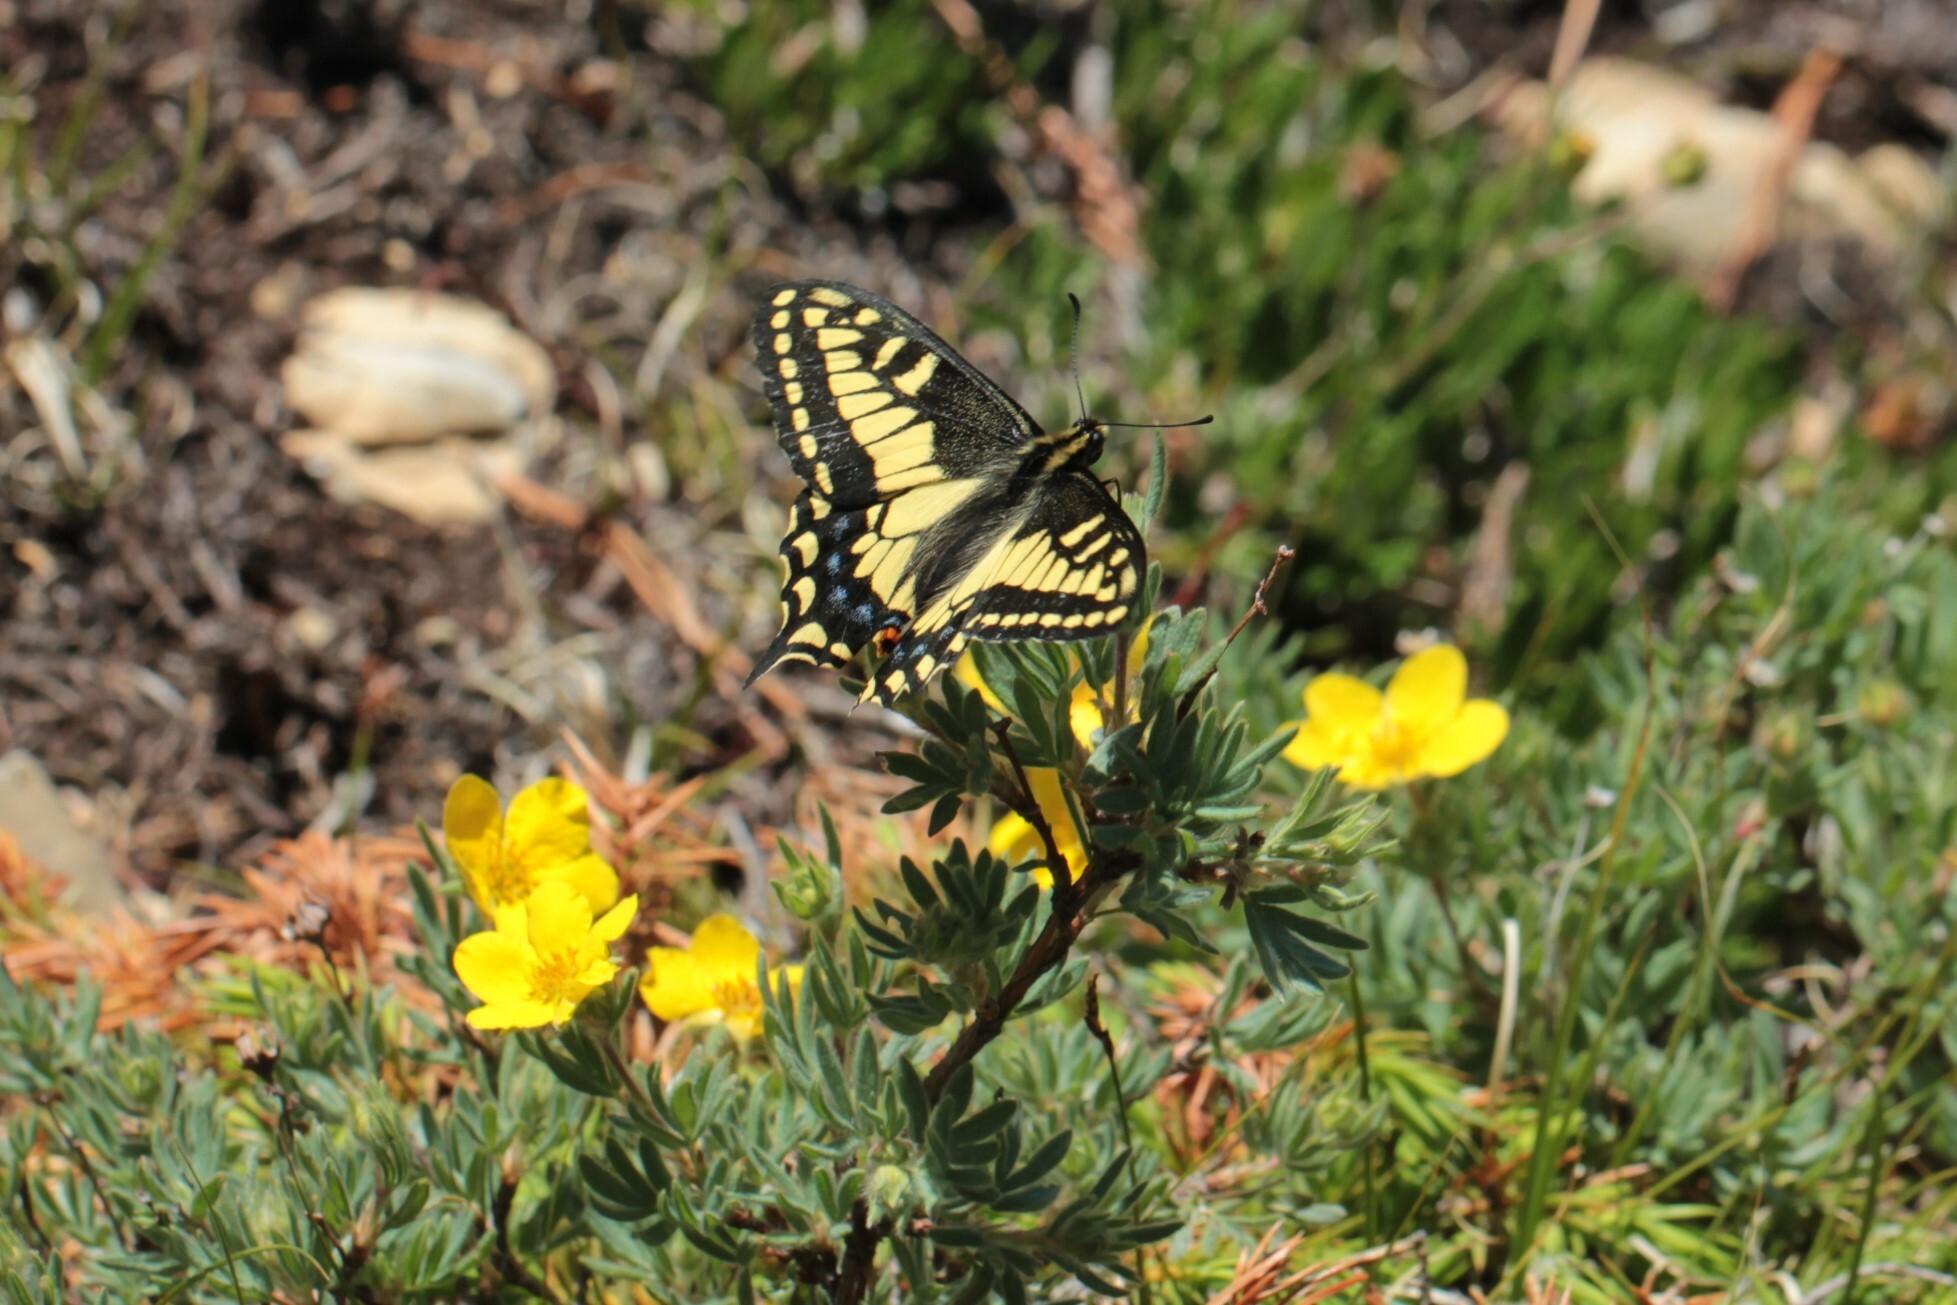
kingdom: Animalia
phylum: Arthropoda
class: Insecta
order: Lepidoptera
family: Papilionidae
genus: Papilio
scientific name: Papilio zelicaon
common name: Anise swallowtail
